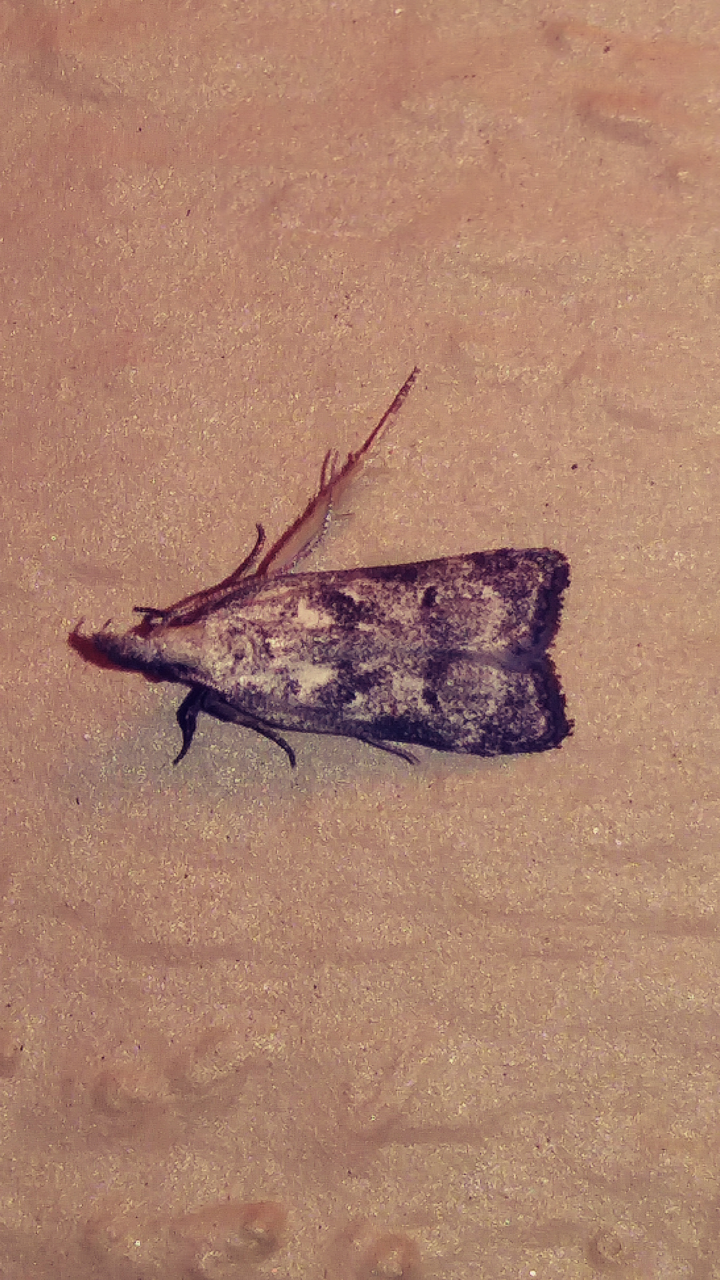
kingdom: Animalia
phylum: Arthropoda
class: Insecta
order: Lepidoptera
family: Gelechiidae
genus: Dichomeris
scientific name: Dichomeris kimballi
